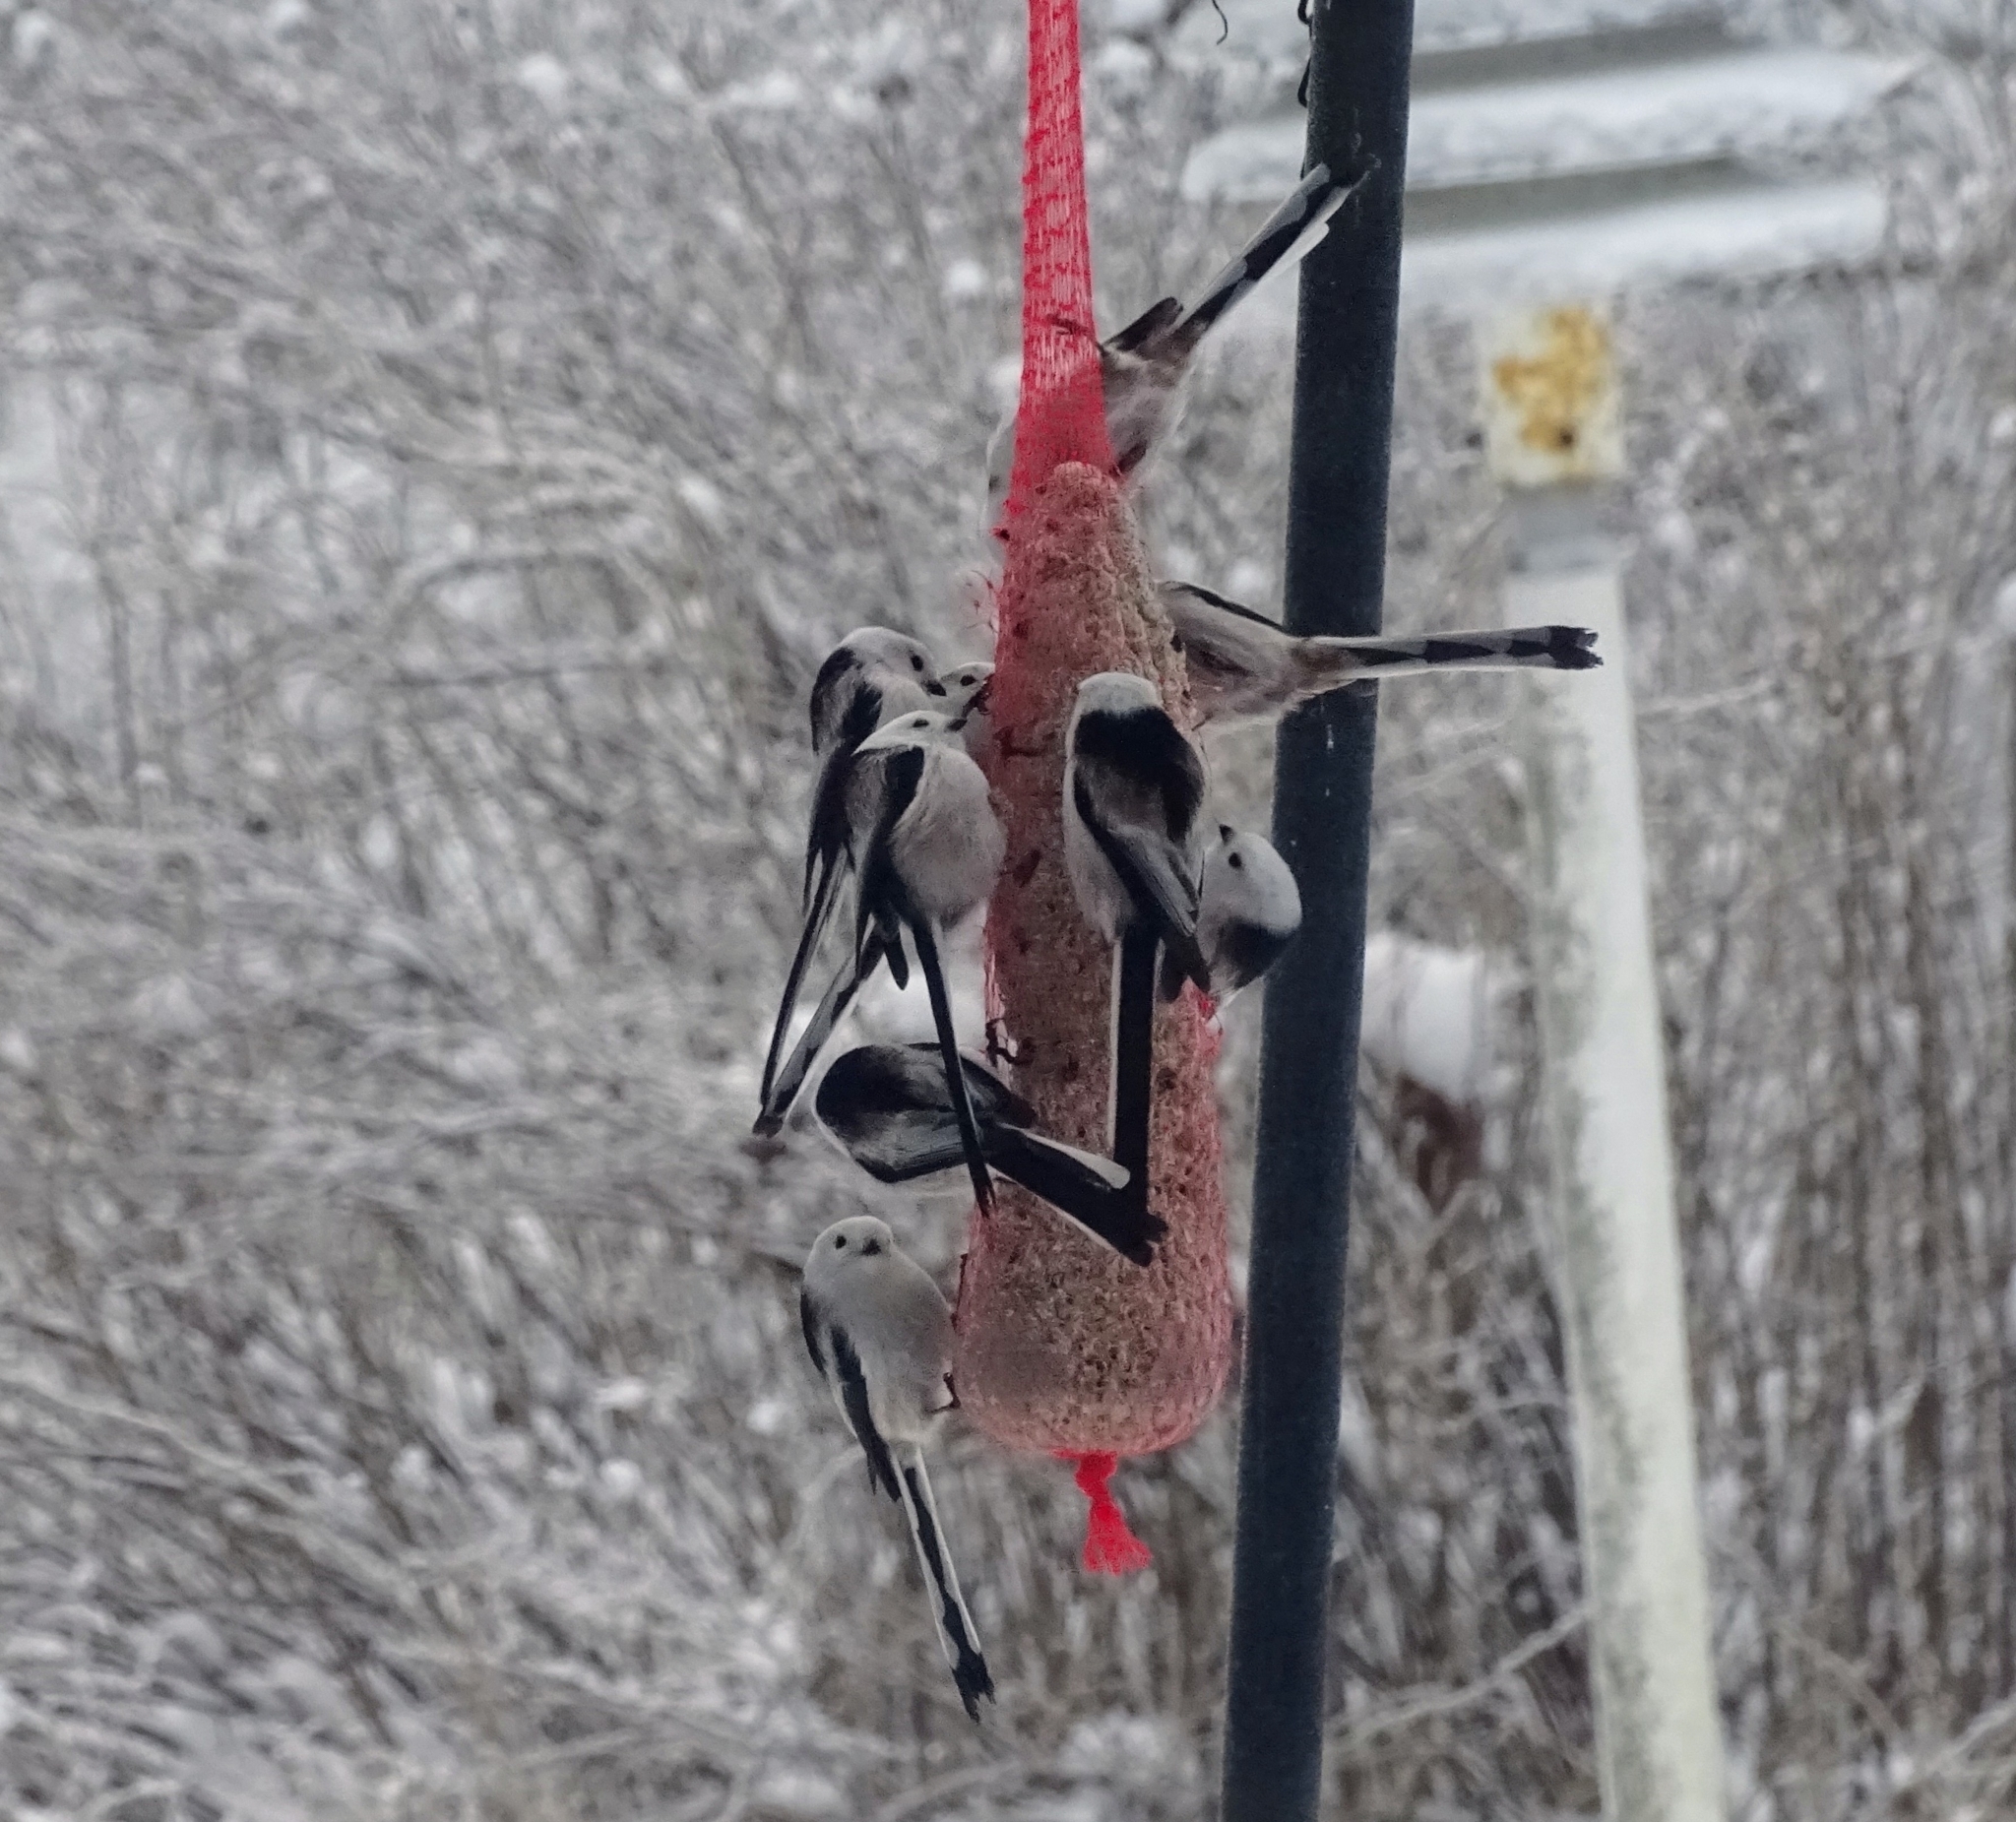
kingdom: Animalia
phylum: Chordata
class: Aves
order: Passeriformes
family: Aegithalidae
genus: Aegithalos
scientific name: Aegithalos caudatus
